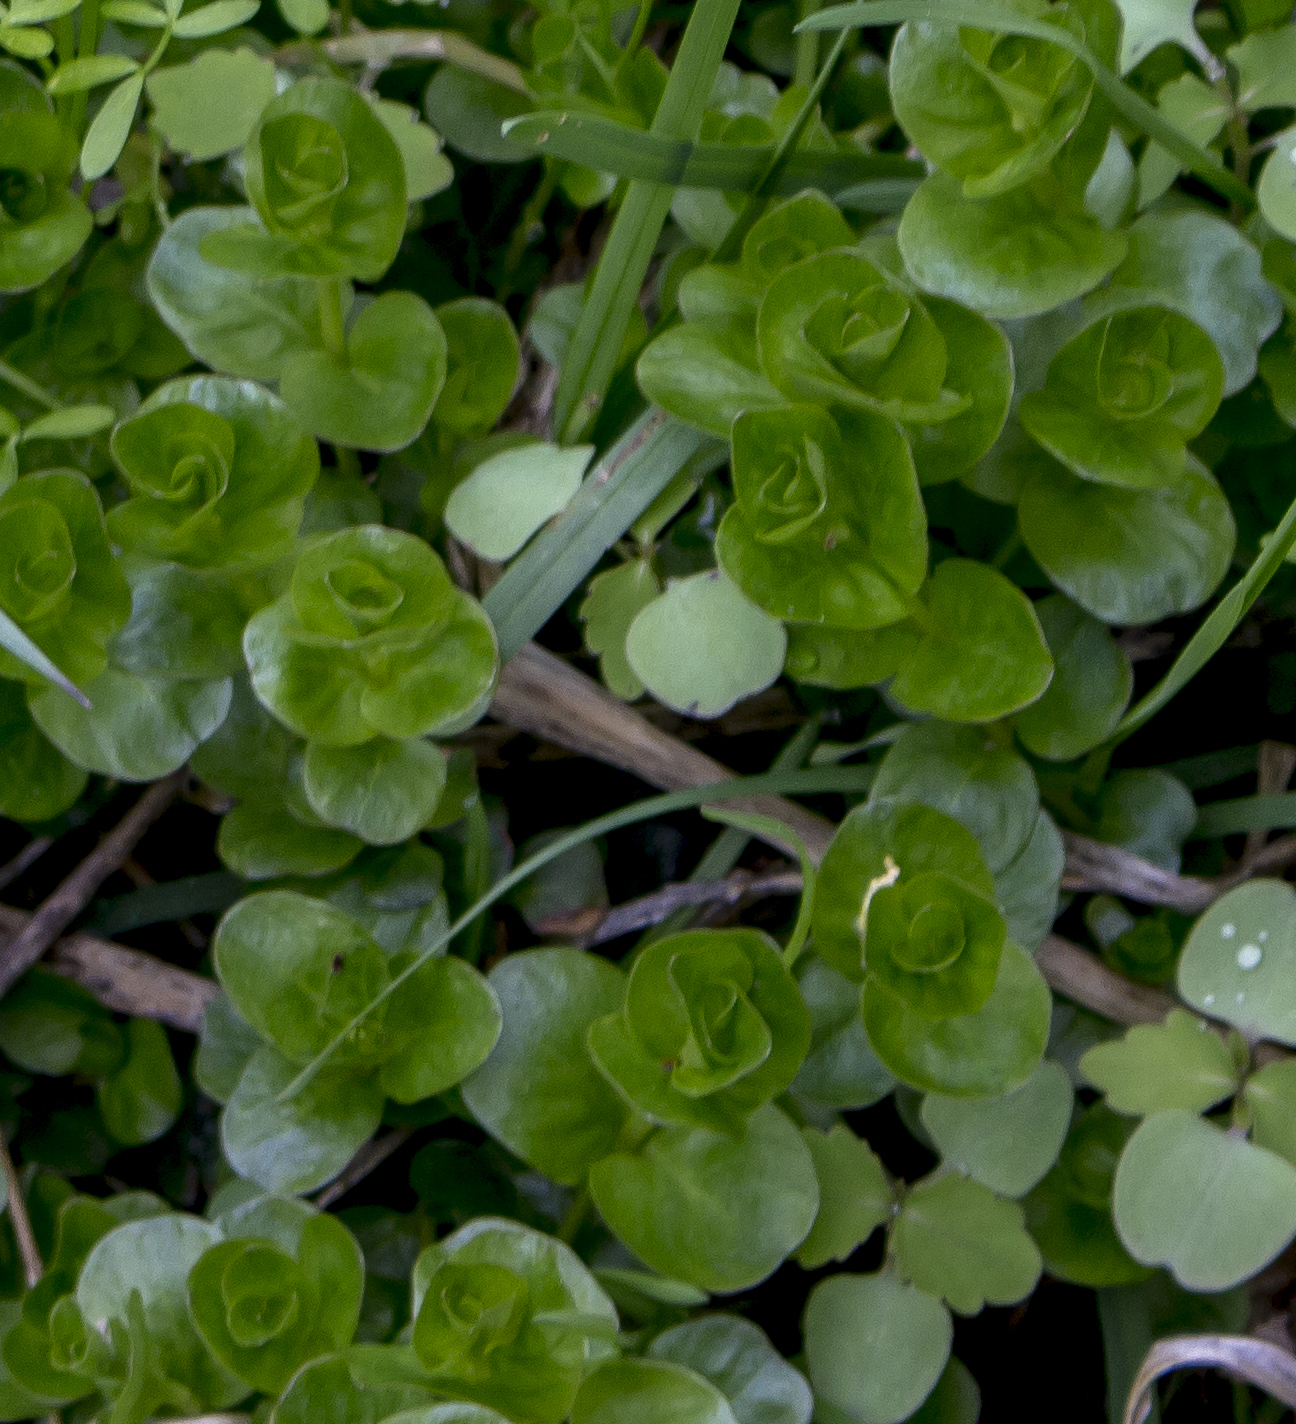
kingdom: Plantae
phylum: Tracheophyta
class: Magnoliopsida
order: Ericales
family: Primulaceae
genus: Lysimachia
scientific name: Lysimachia nummularia
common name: Moneywort
